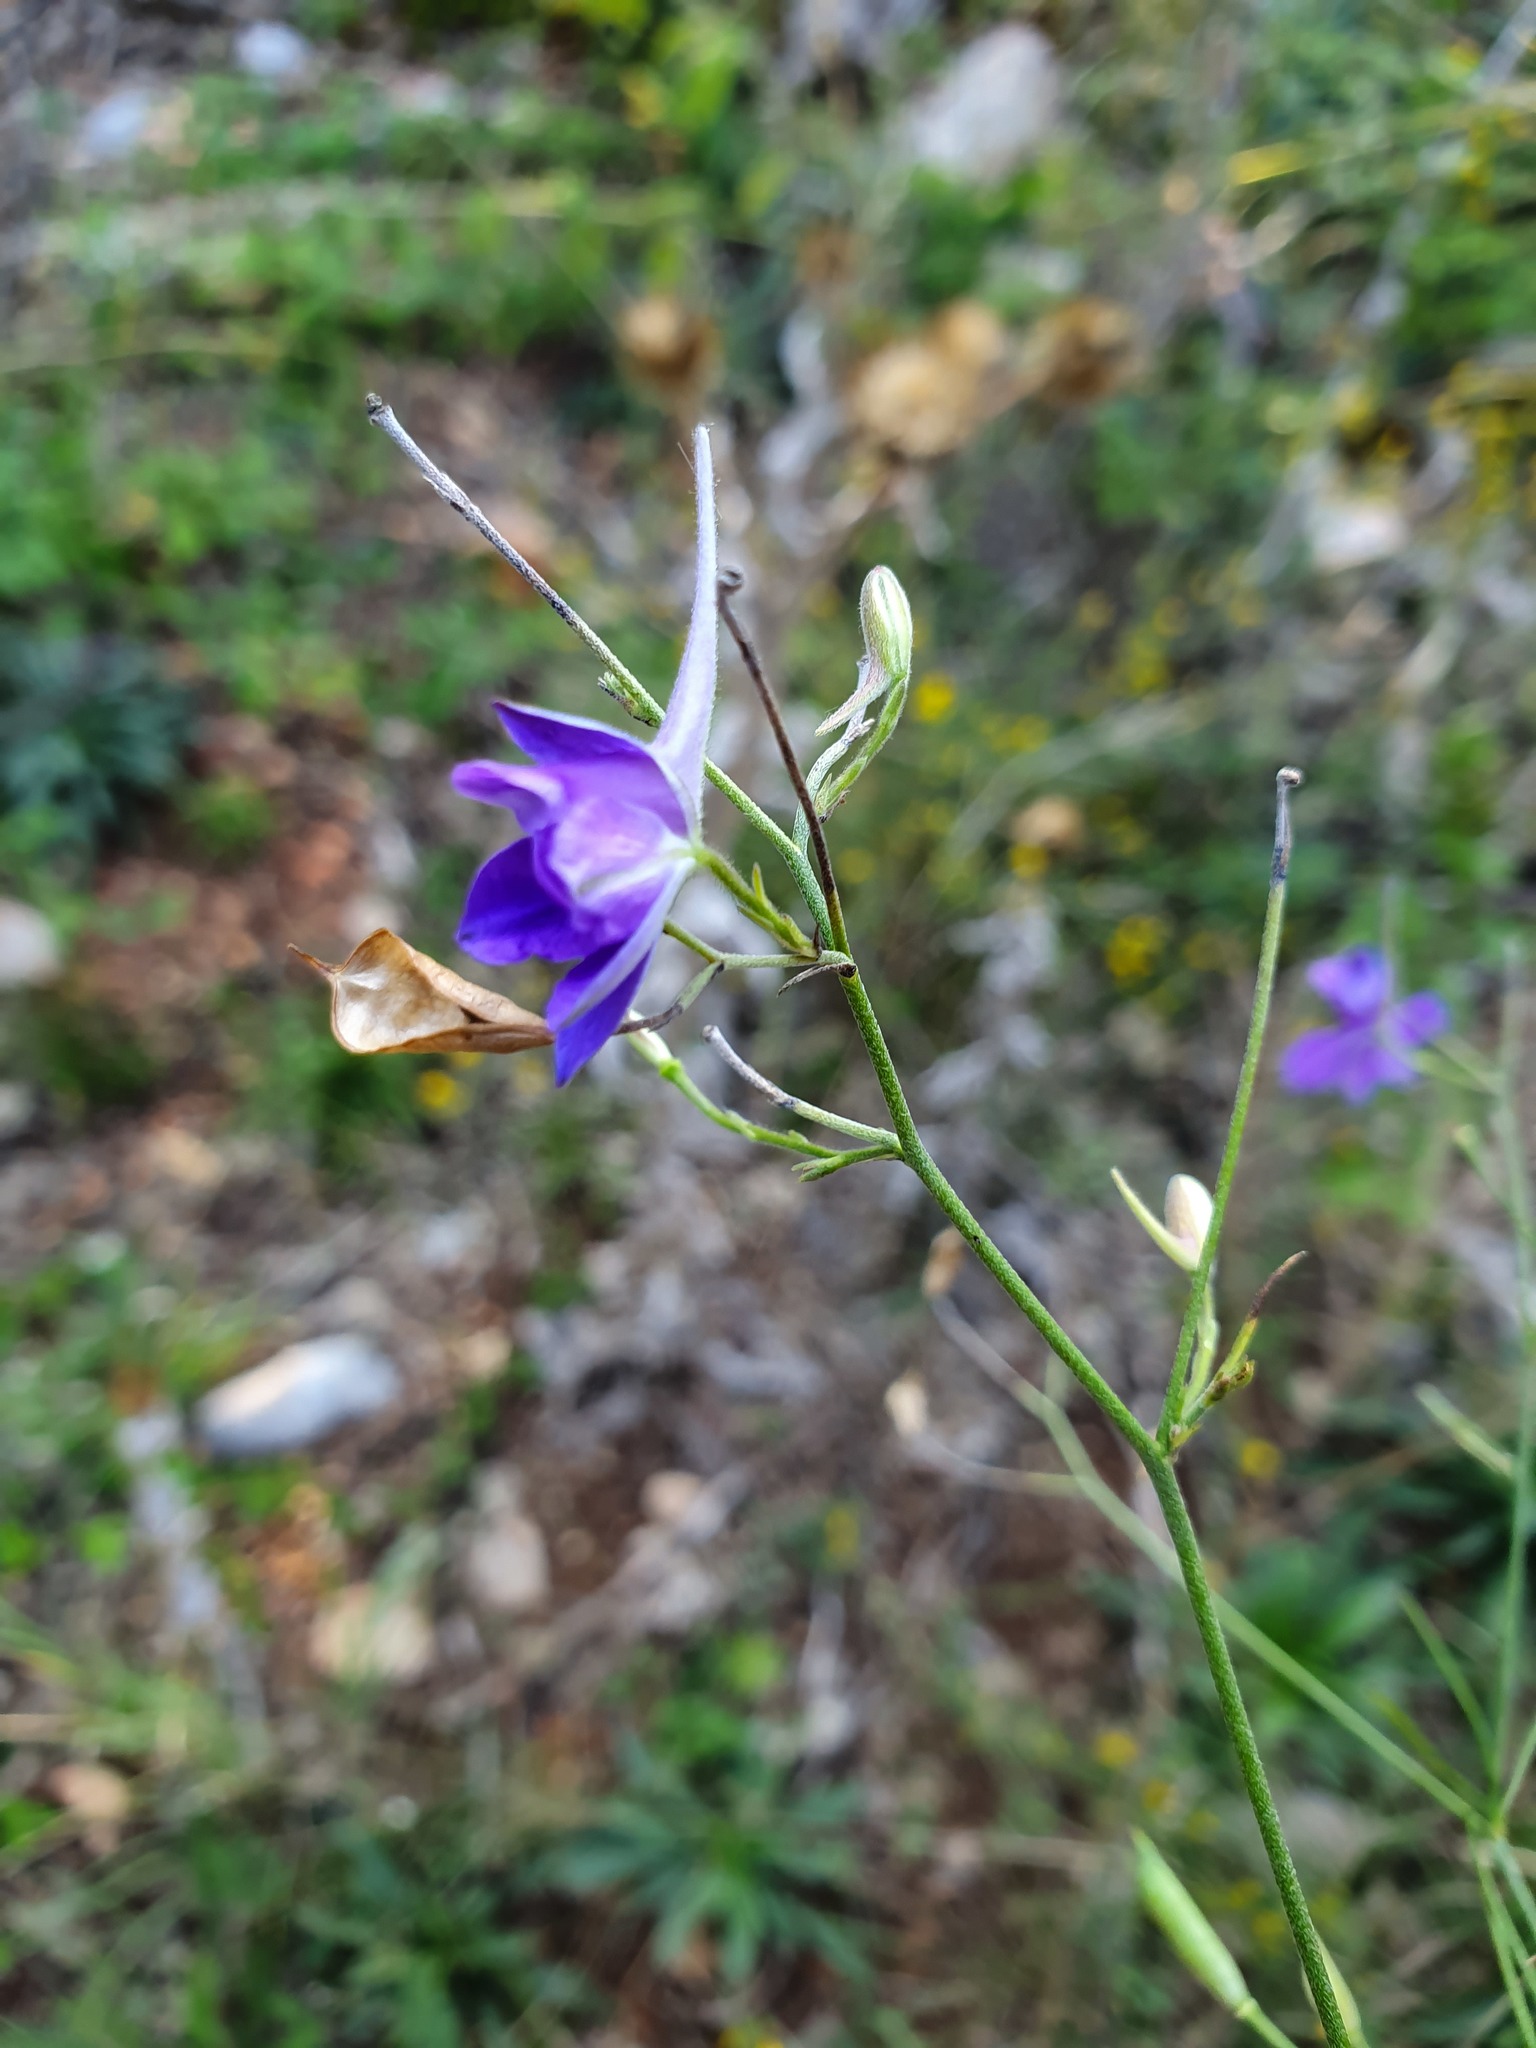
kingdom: Plantae
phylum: Tracheophyta
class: Magnoliopsida
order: Ranunculales
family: Ranunculaceae
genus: Delphinium
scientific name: Delphinium consolida
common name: Branching larkspur
